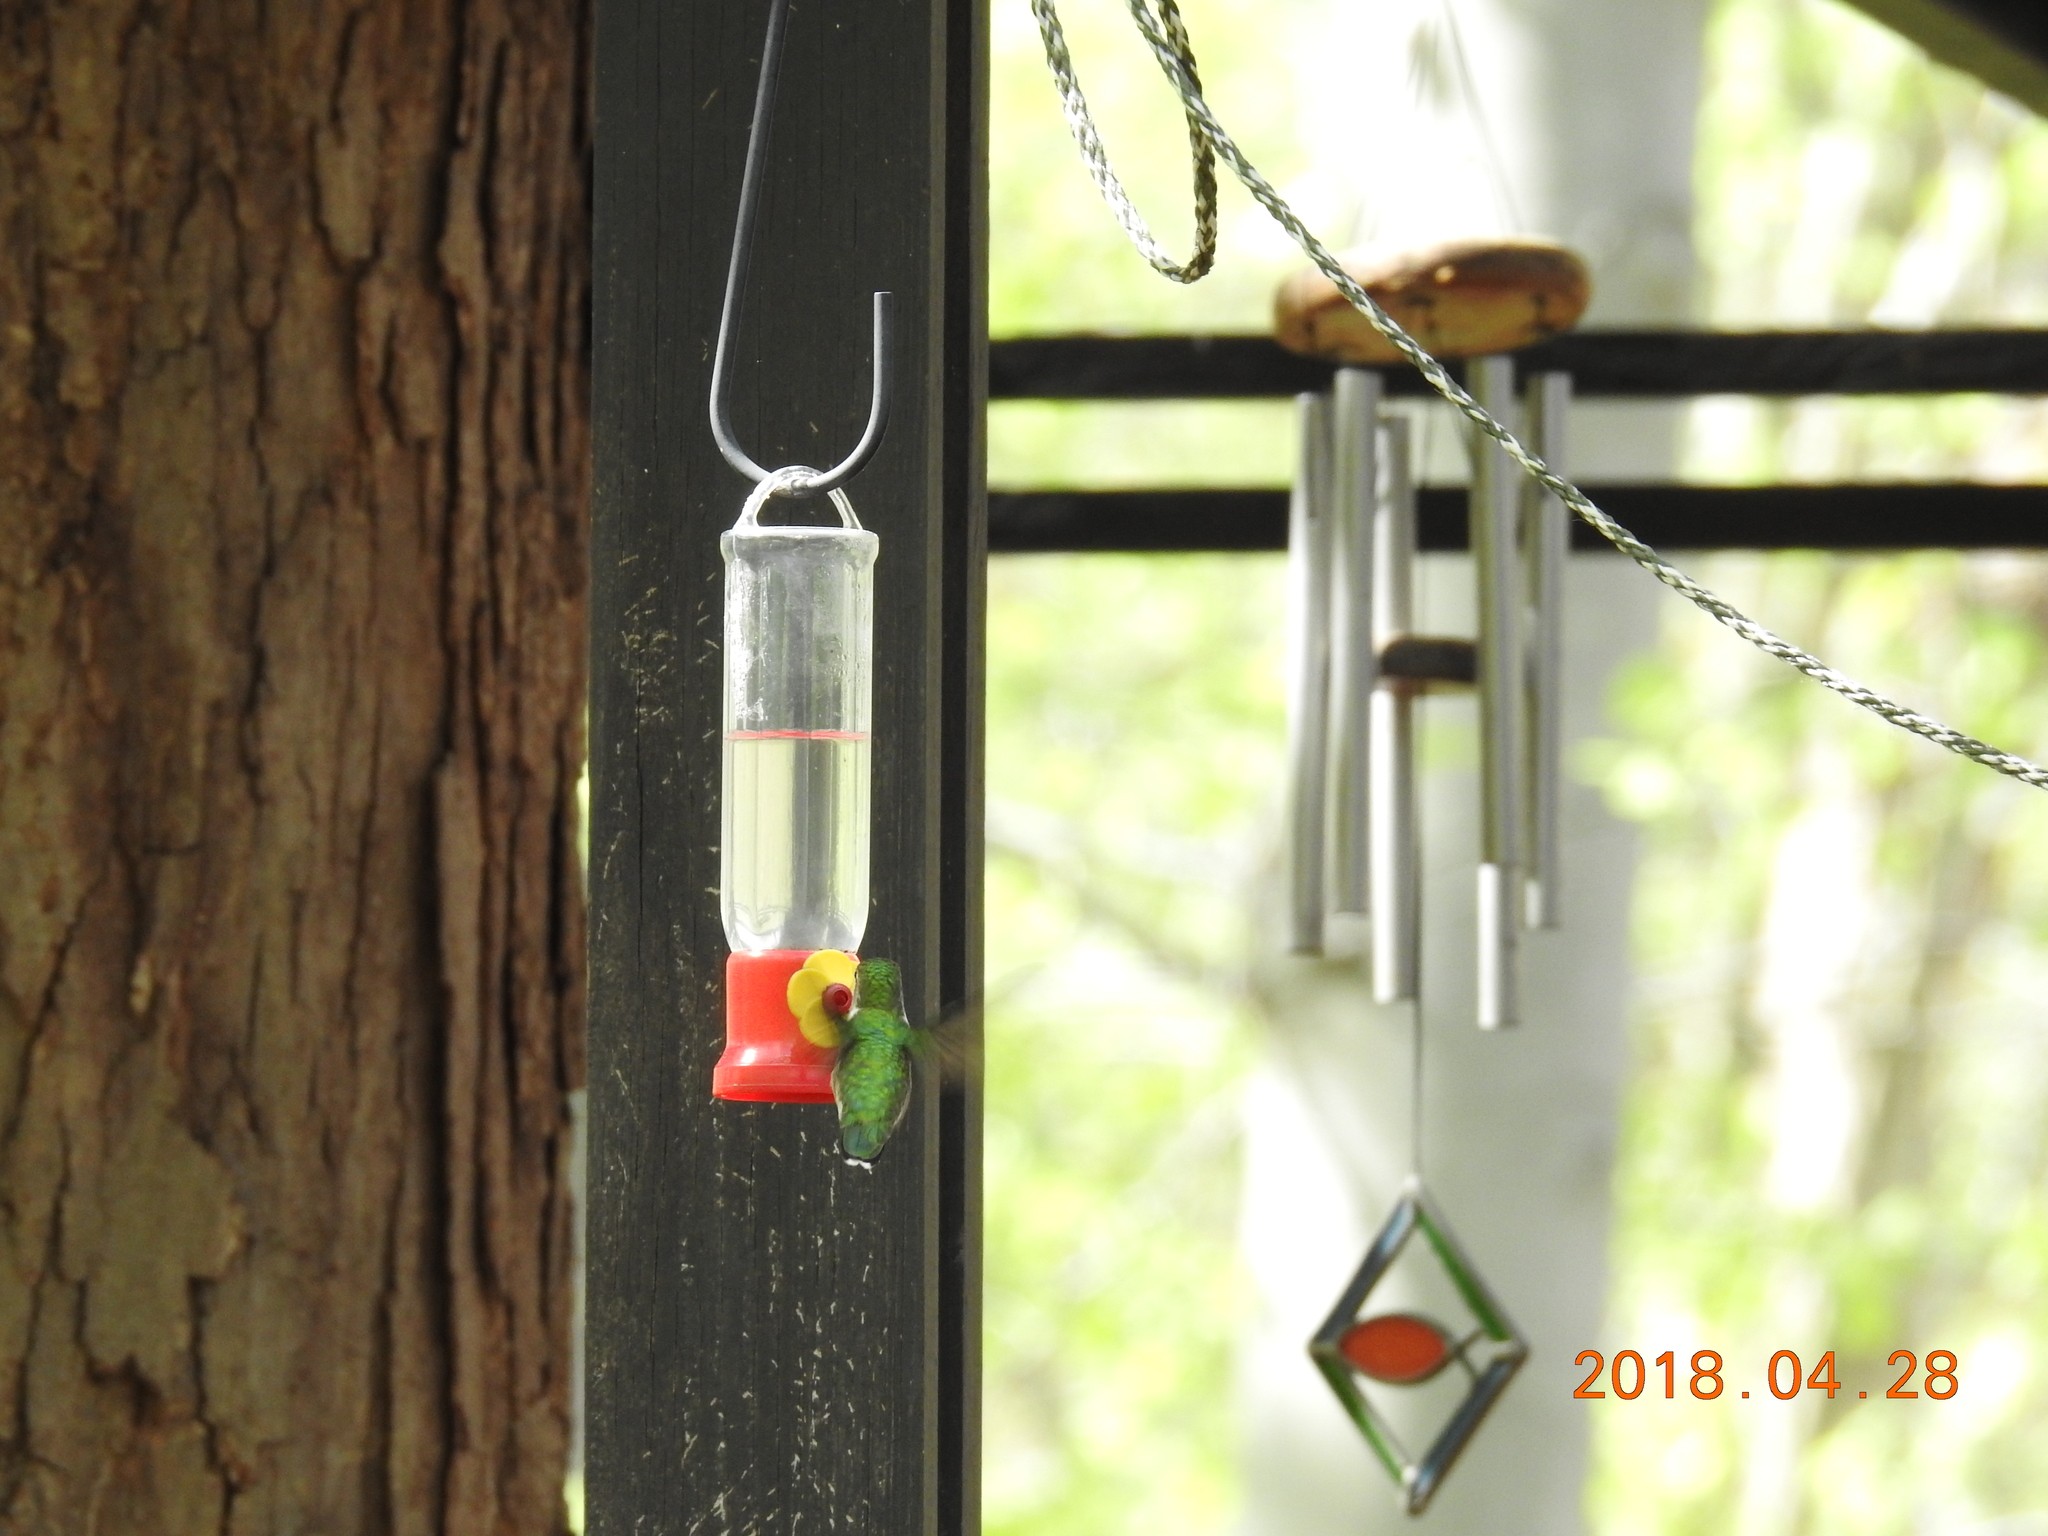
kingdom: Animalia
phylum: Chordata
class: Aves
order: Apodiformes
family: Trochilidae
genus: Archilochus
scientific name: Archilochus colubris
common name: Ruby-throated hummingbird
